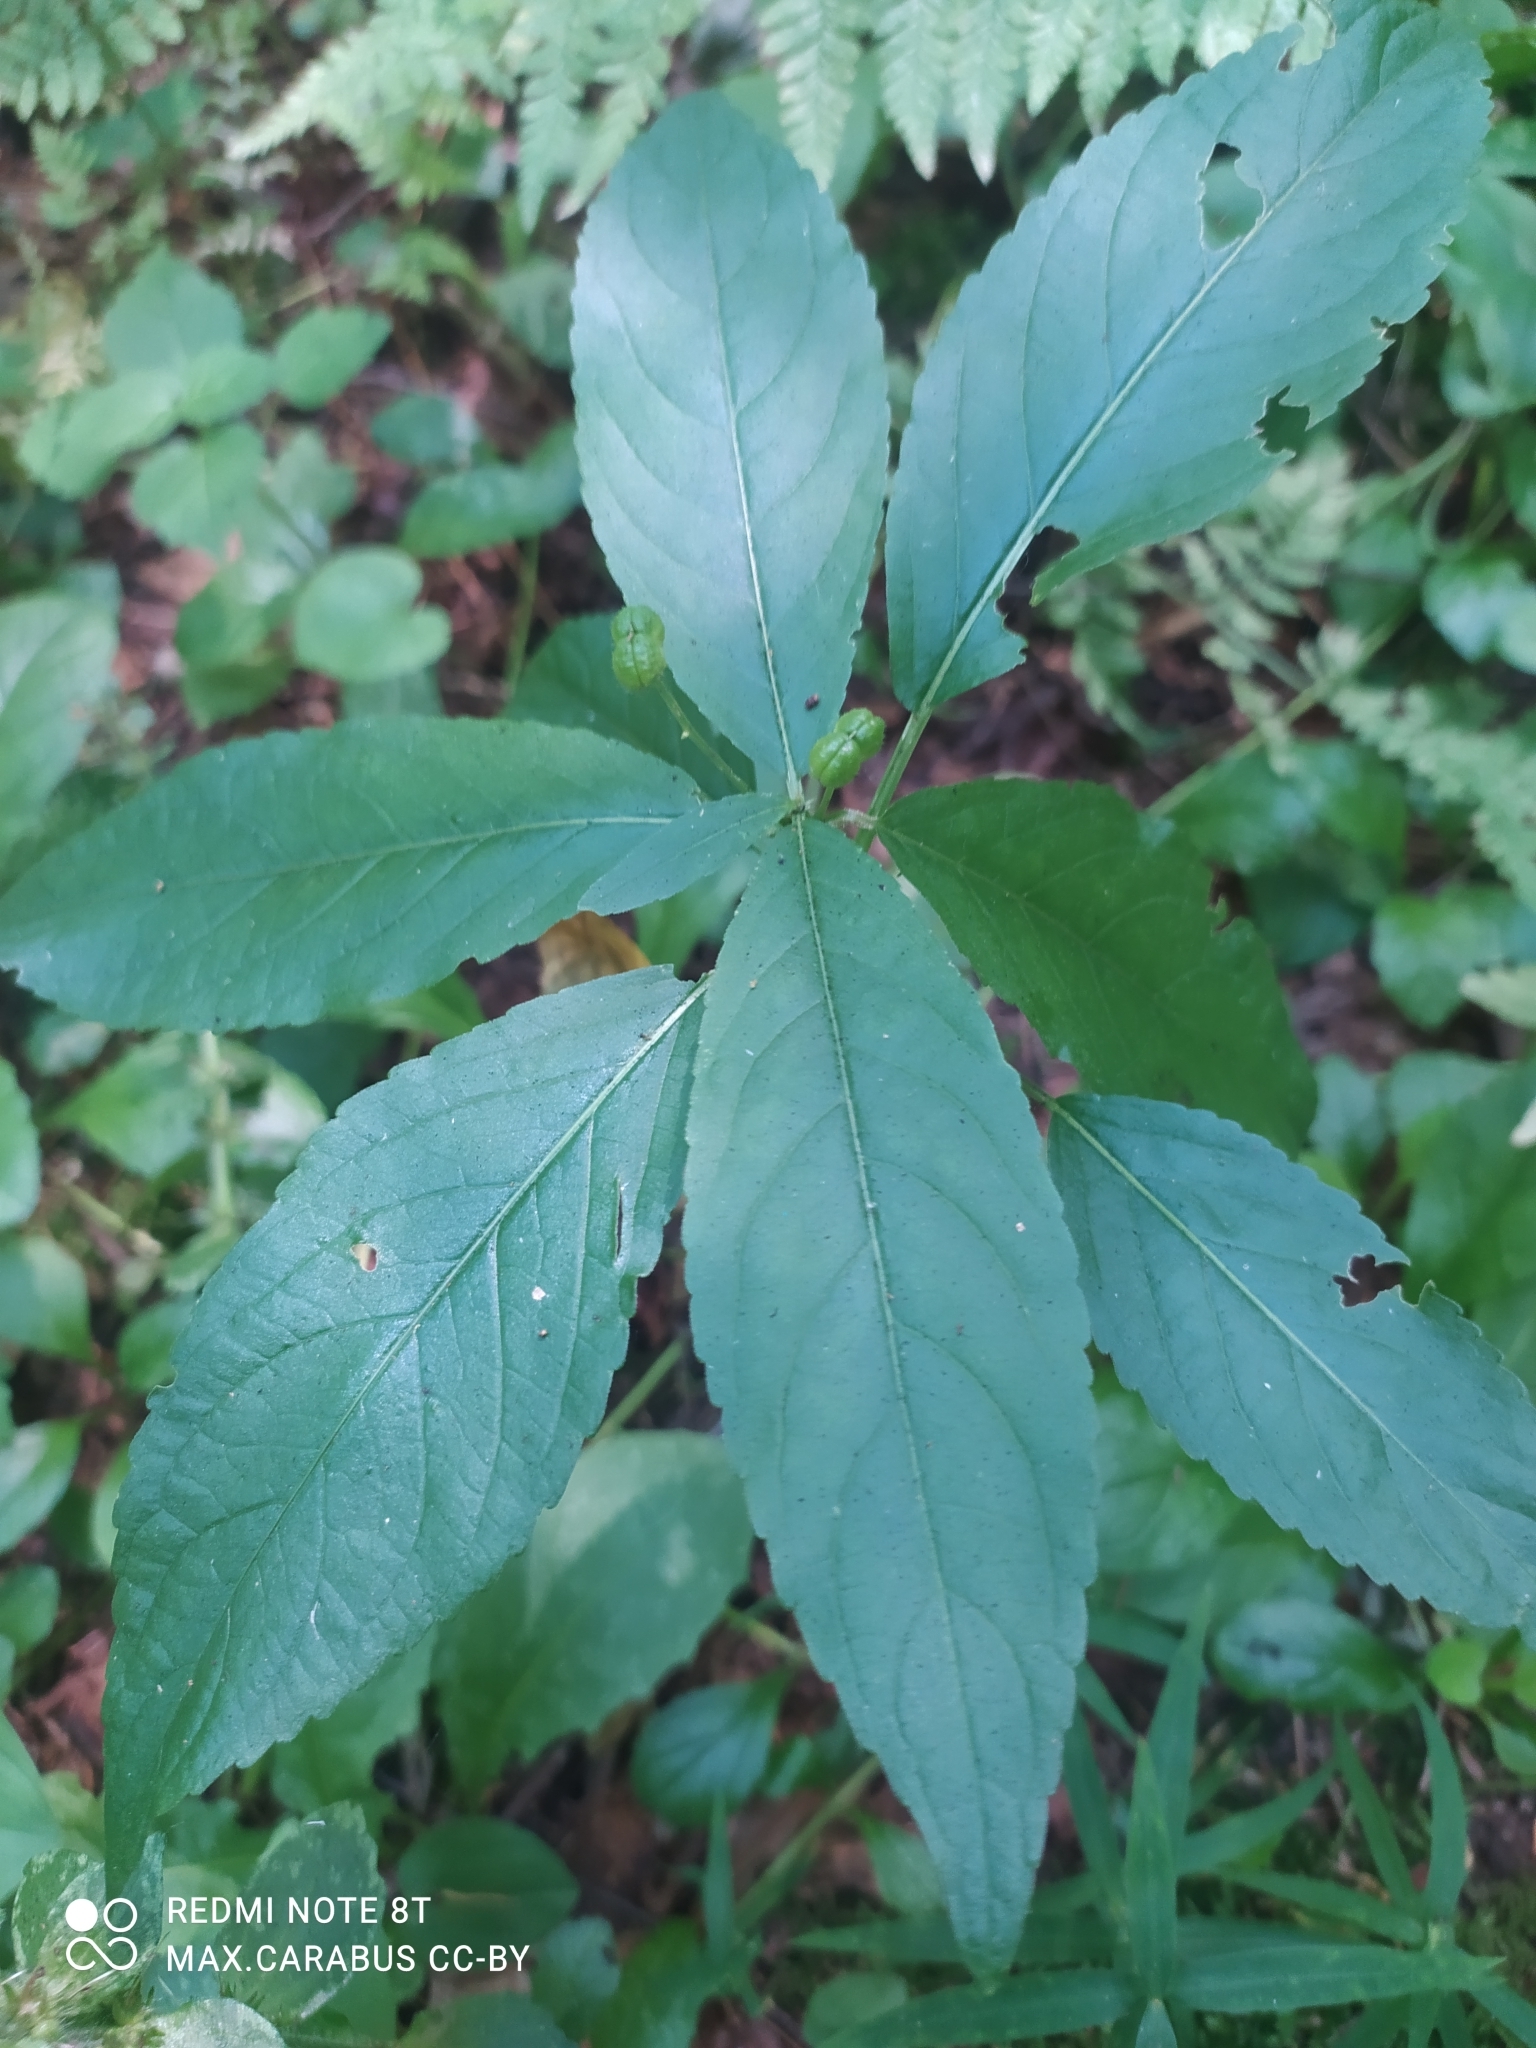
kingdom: Plantae
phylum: Tracheophyta
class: Magnoliopsida
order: Malpighiales
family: Euphorbiaceae
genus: Mercurialis
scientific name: Mercurialis perennis
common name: Dog mercury
